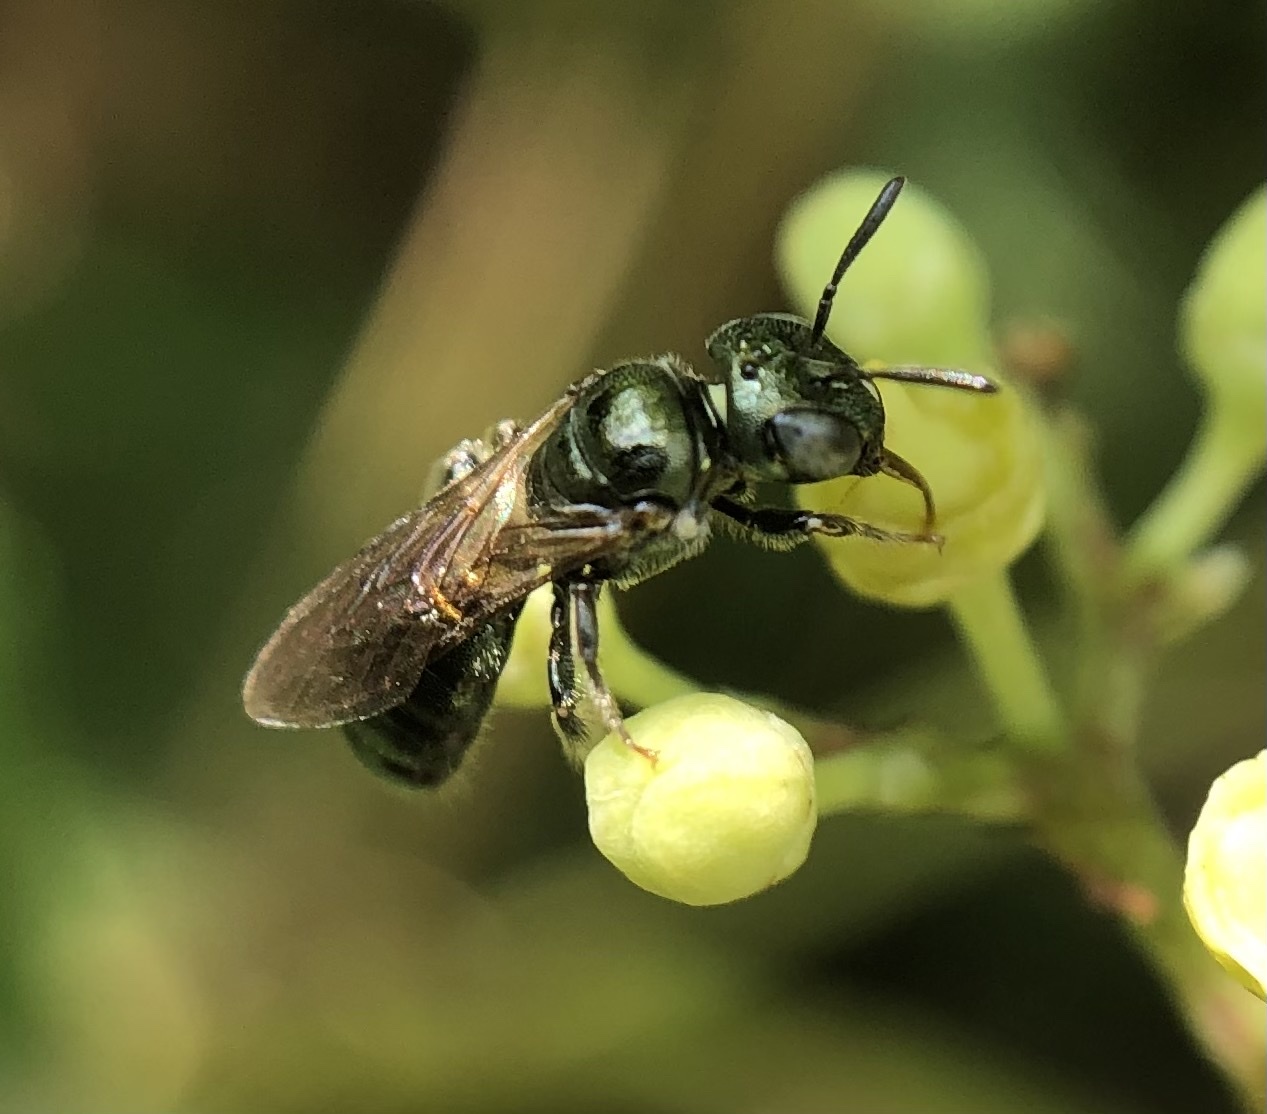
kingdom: Animalia
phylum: Arthropoda
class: Insecta
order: Hymenoptera
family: Apidae
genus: Ceratina
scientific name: Ceratina strenua
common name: Nimble carpenter bee
